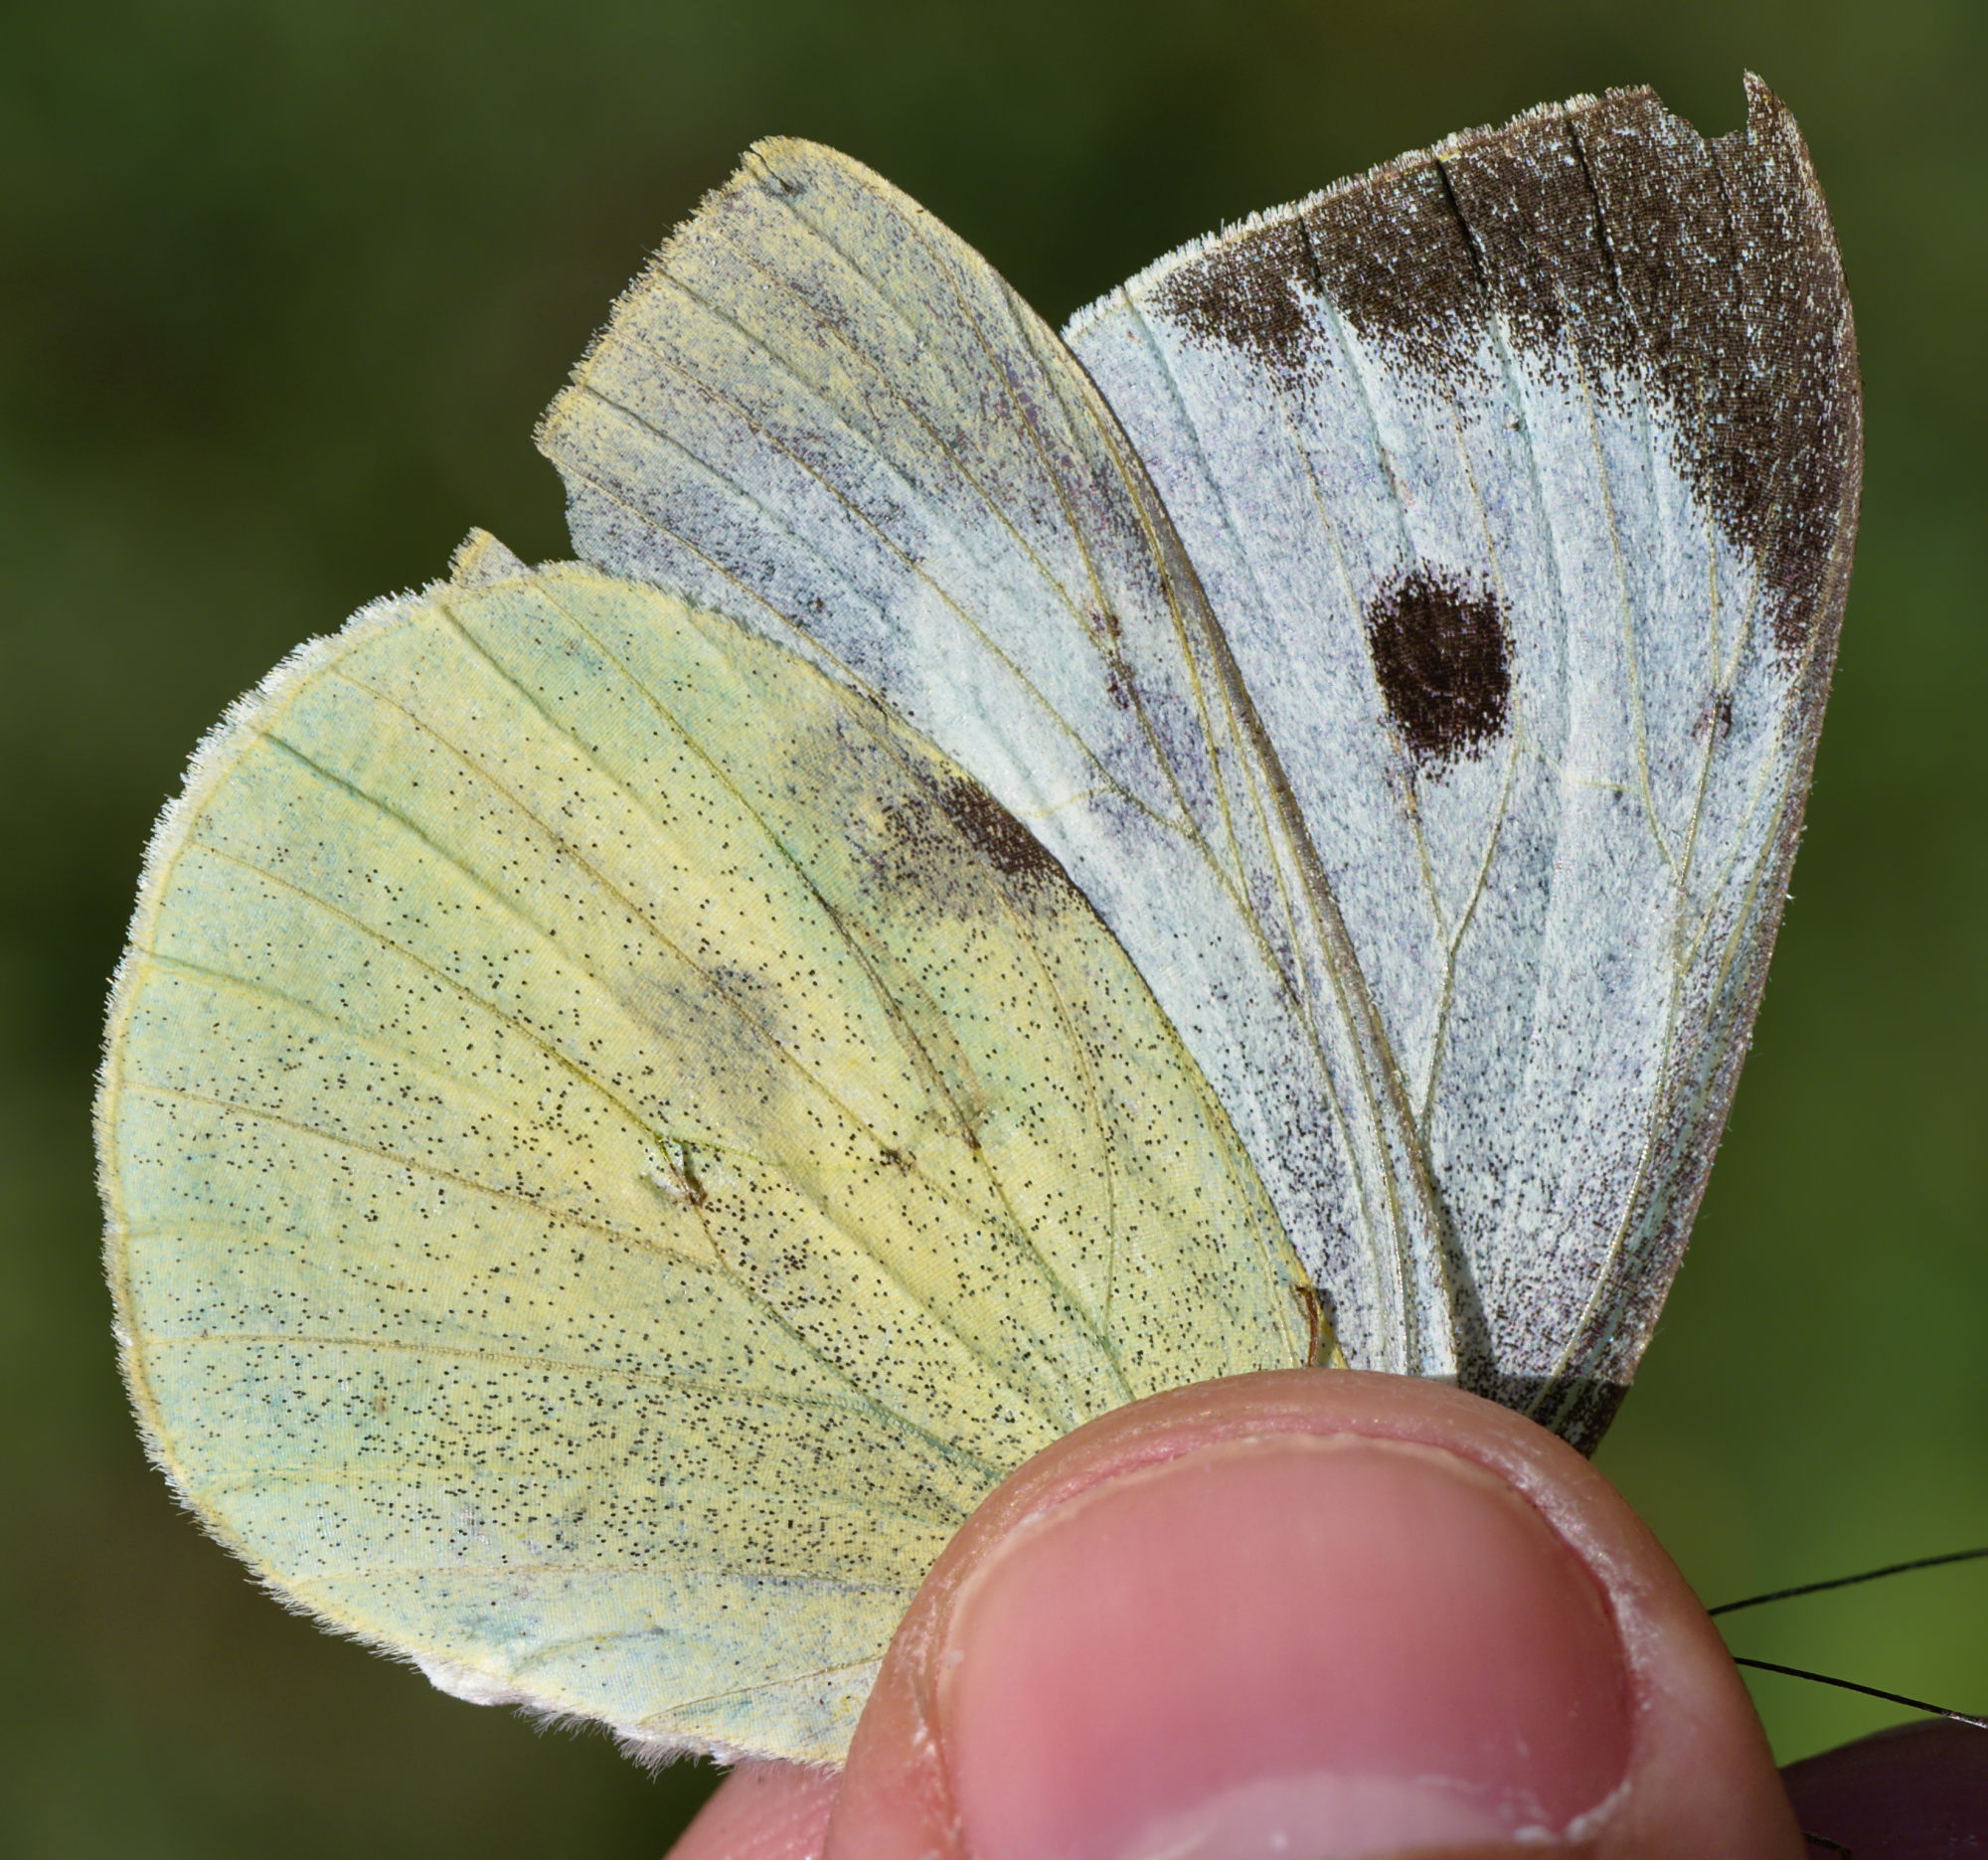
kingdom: Animalia
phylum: Arthropoda
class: Insecta
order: Lepidoptera
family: Pieridae
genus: Pieris
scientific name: Pieris brassicae
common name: Large white
